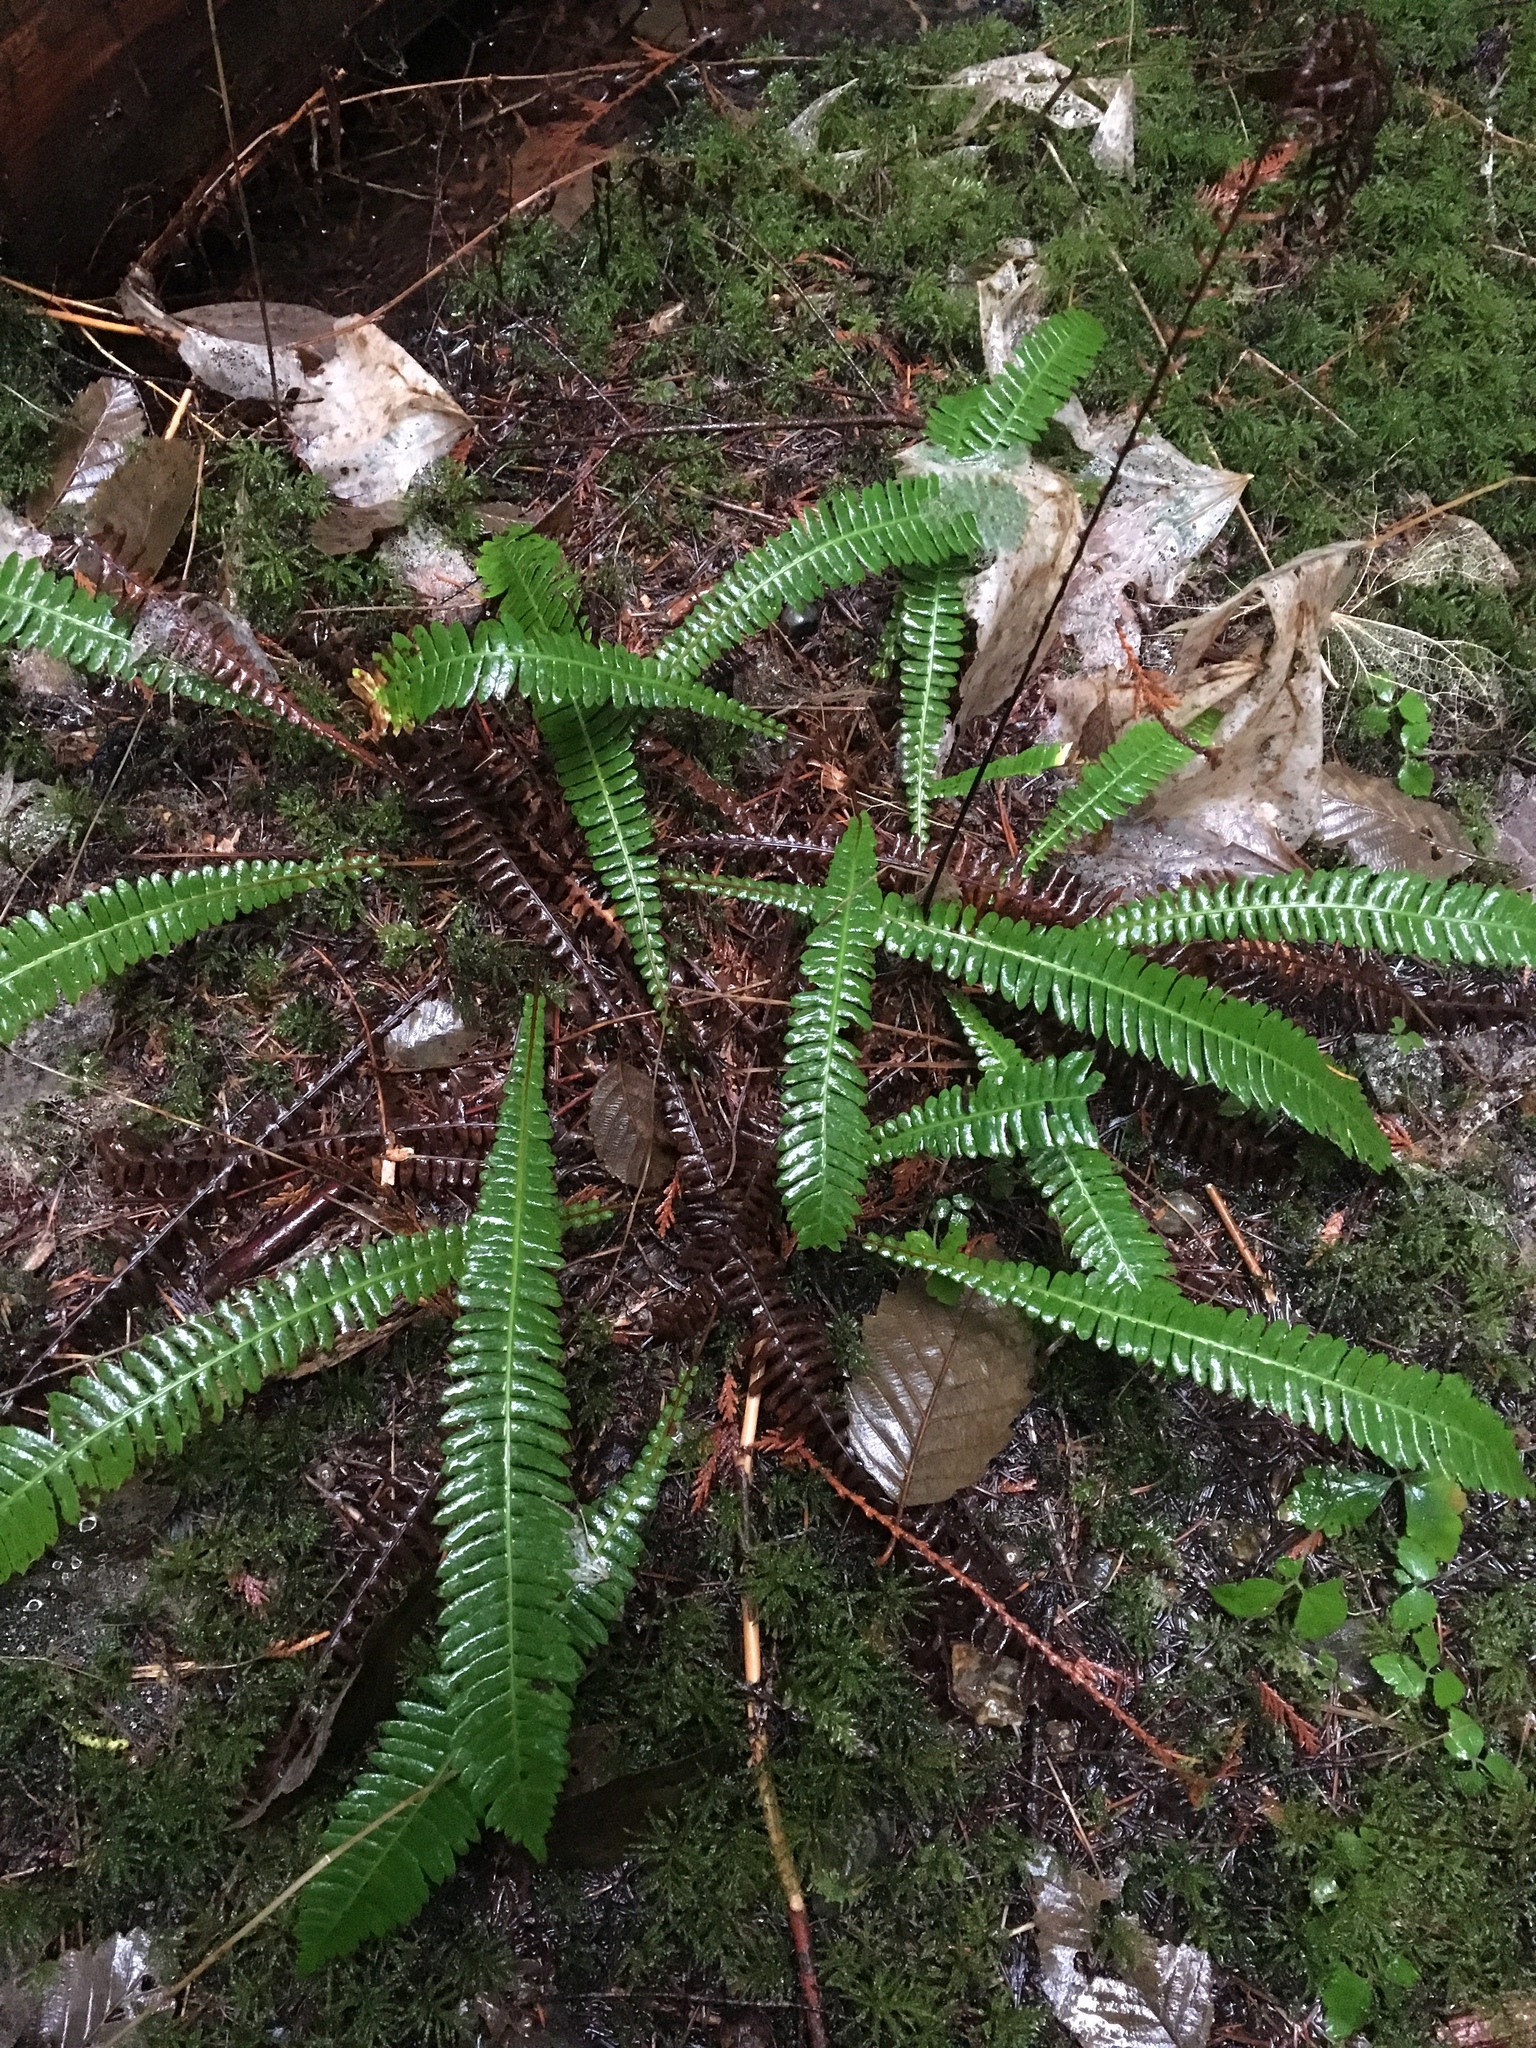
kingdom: Plantae
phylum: Tracheophyta
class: Polypodiopsida
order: Polypodiales
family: Blechnaceae
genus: Struthiopteris
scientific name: Struthiopteris spicant
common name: Deer fern
